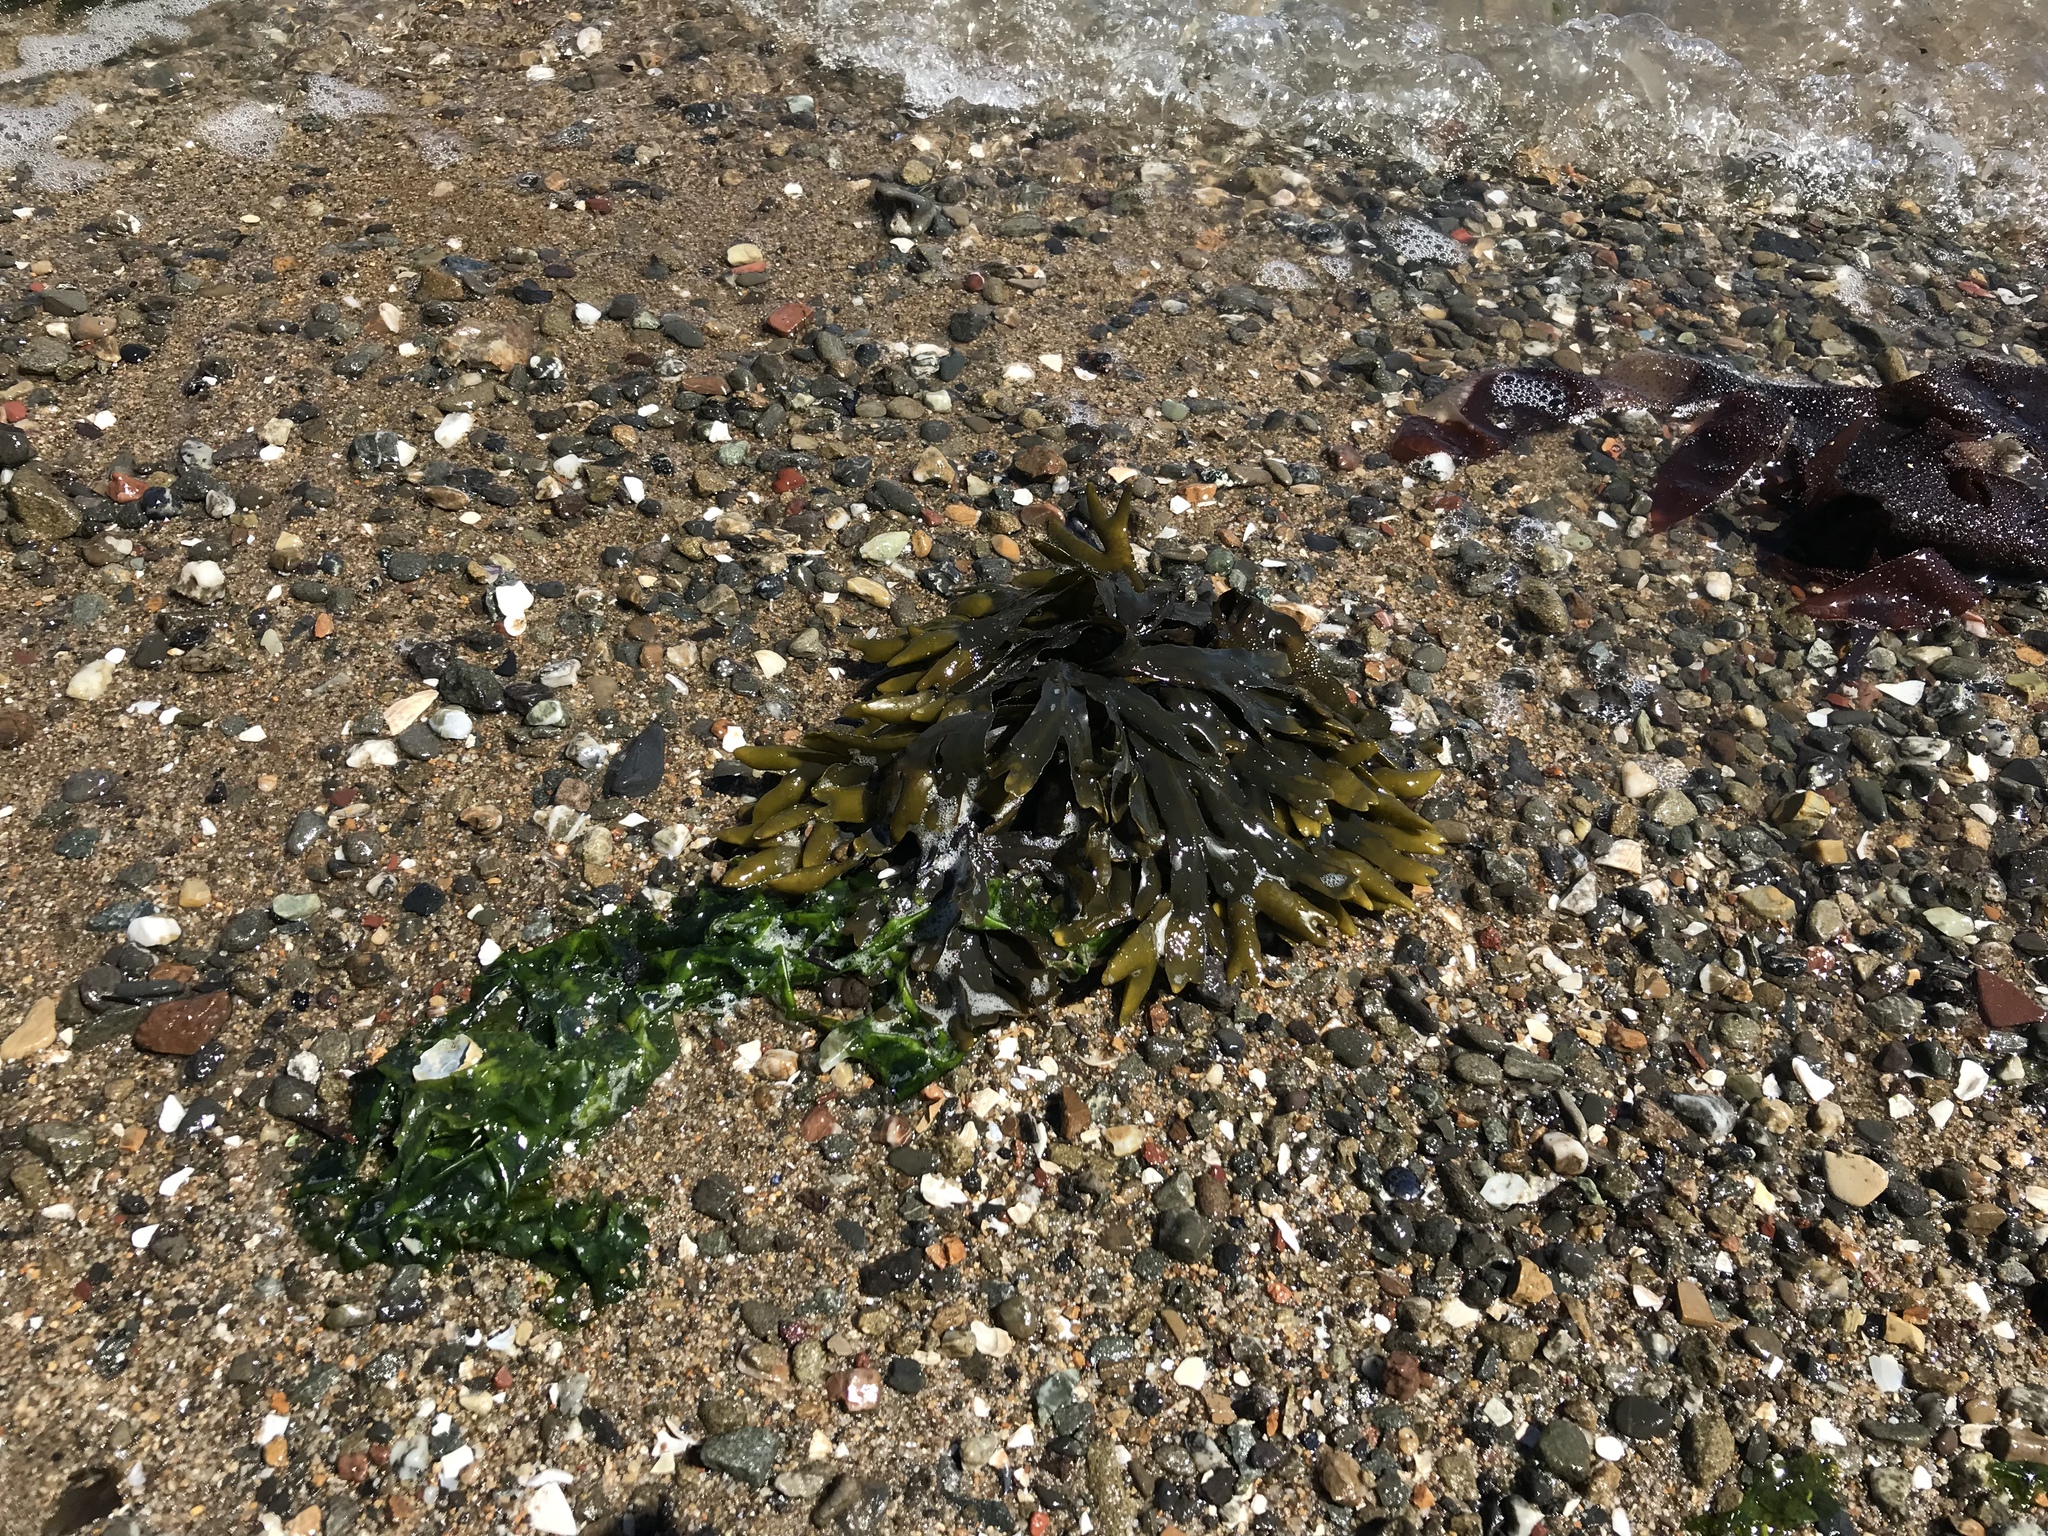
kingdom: Chromista
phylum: Ochrophyta
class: Phaeophyceae
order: Fucales
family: Fucaceae
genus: Fucus
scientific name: Fucus distichus
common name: Rockweed
